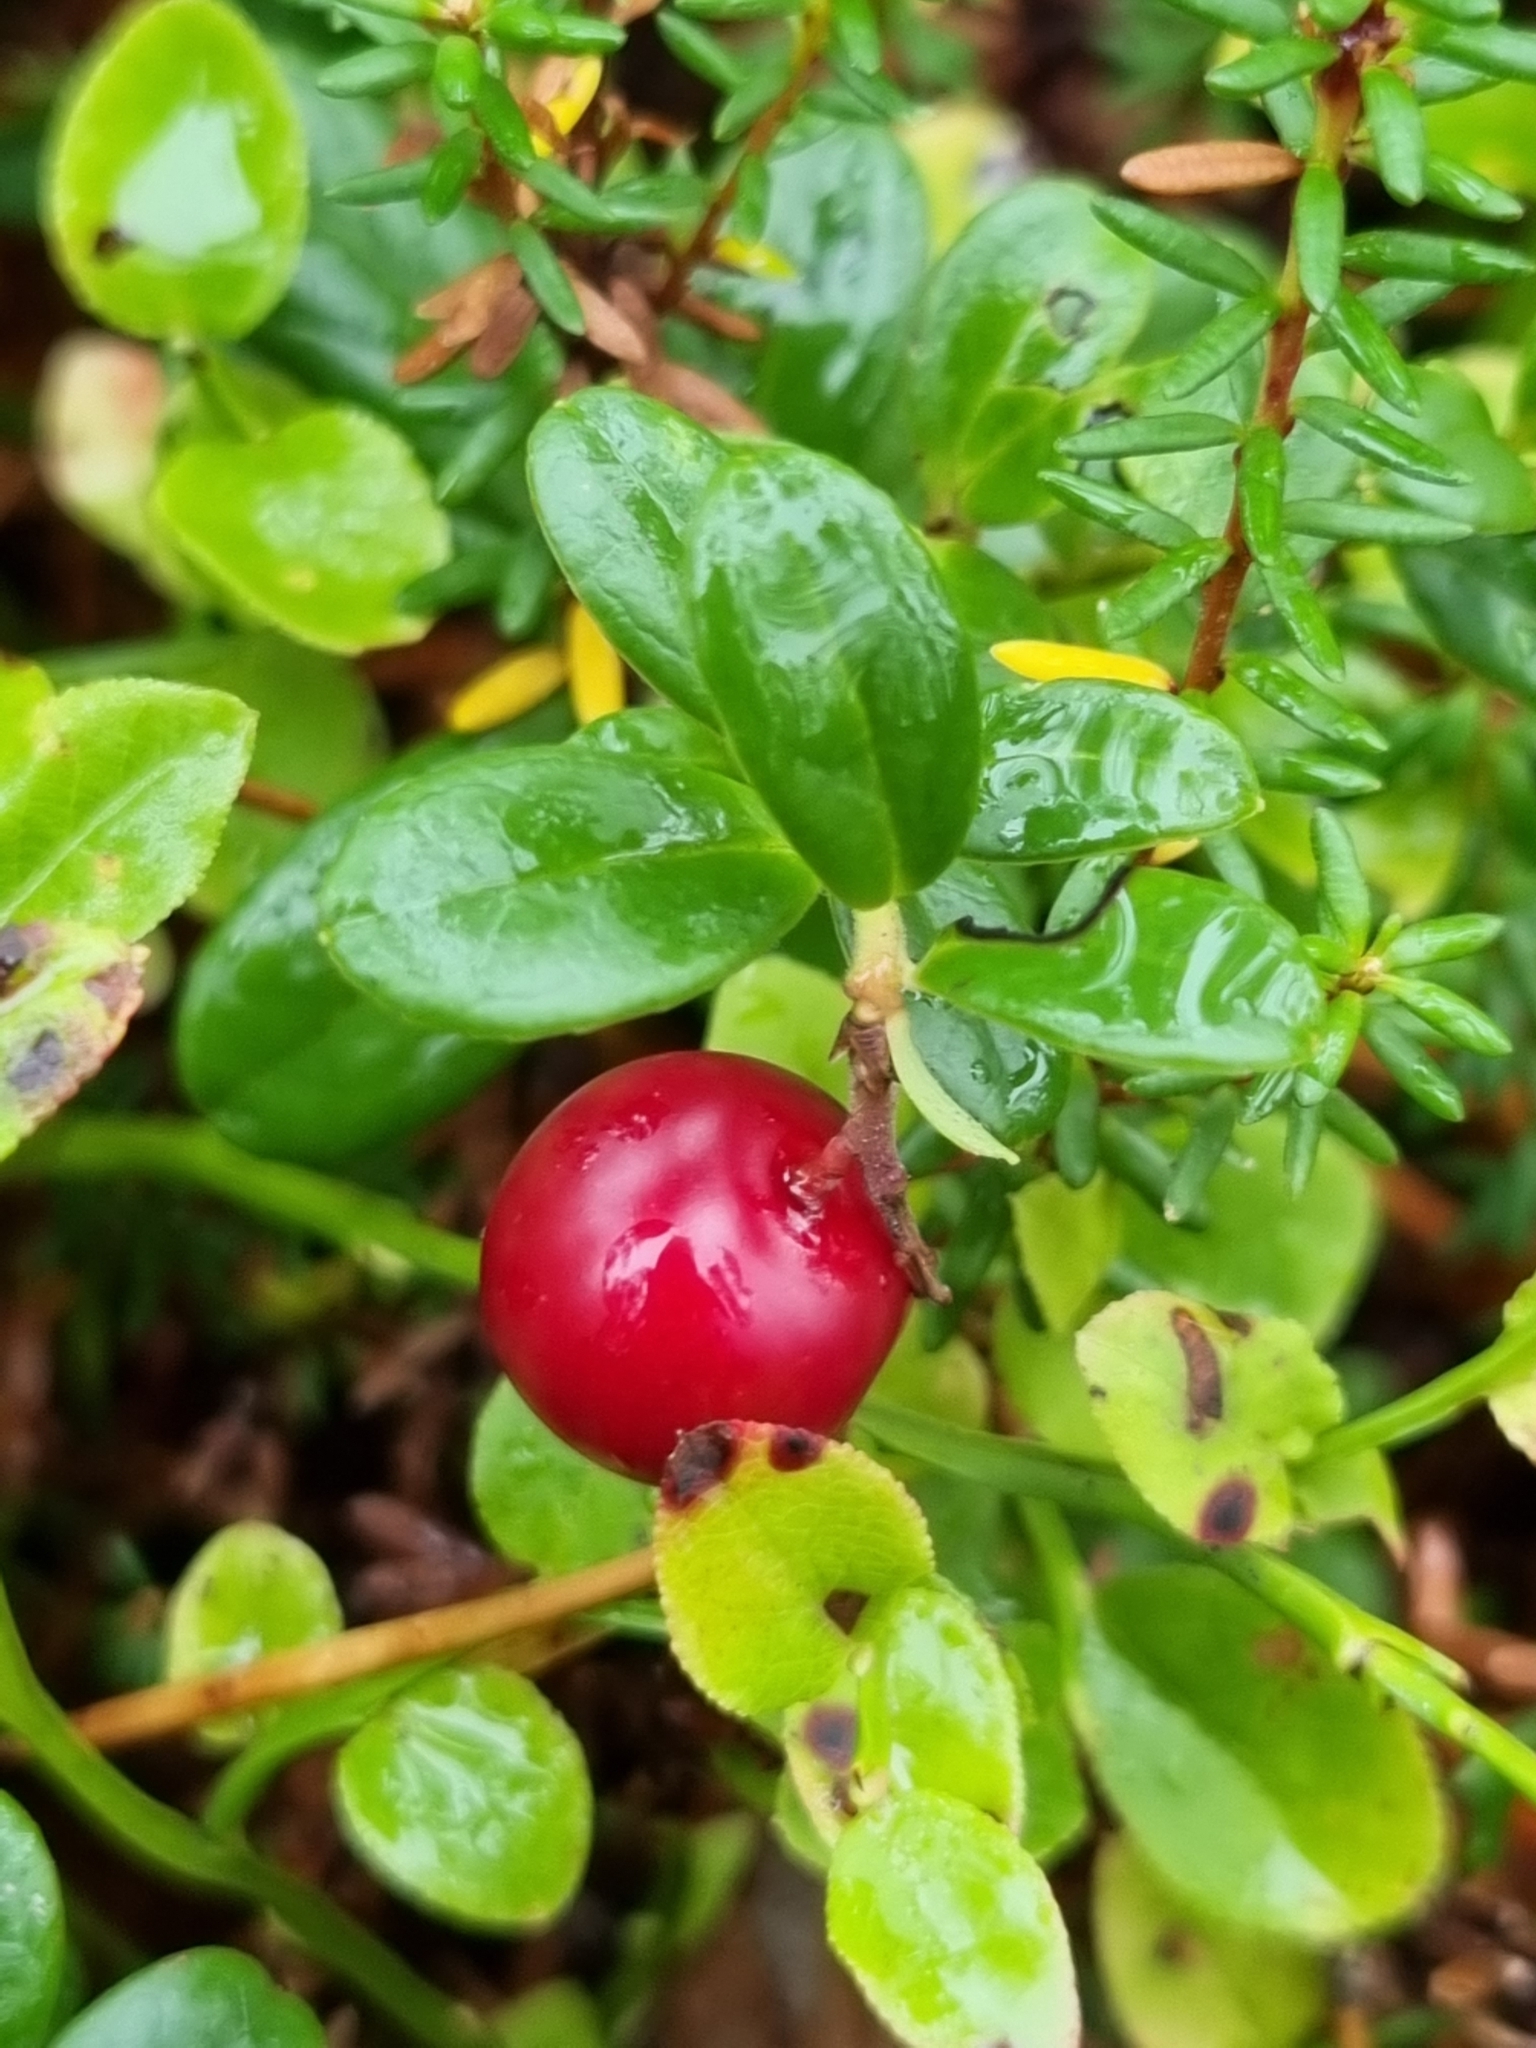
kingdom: Plantae
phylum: Tracheophyta
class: Magnoliopsida
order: Ericales
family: Ericaceae
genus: Vaccinium
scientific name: Vaccinium vitis-idaea
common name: Cowberry
